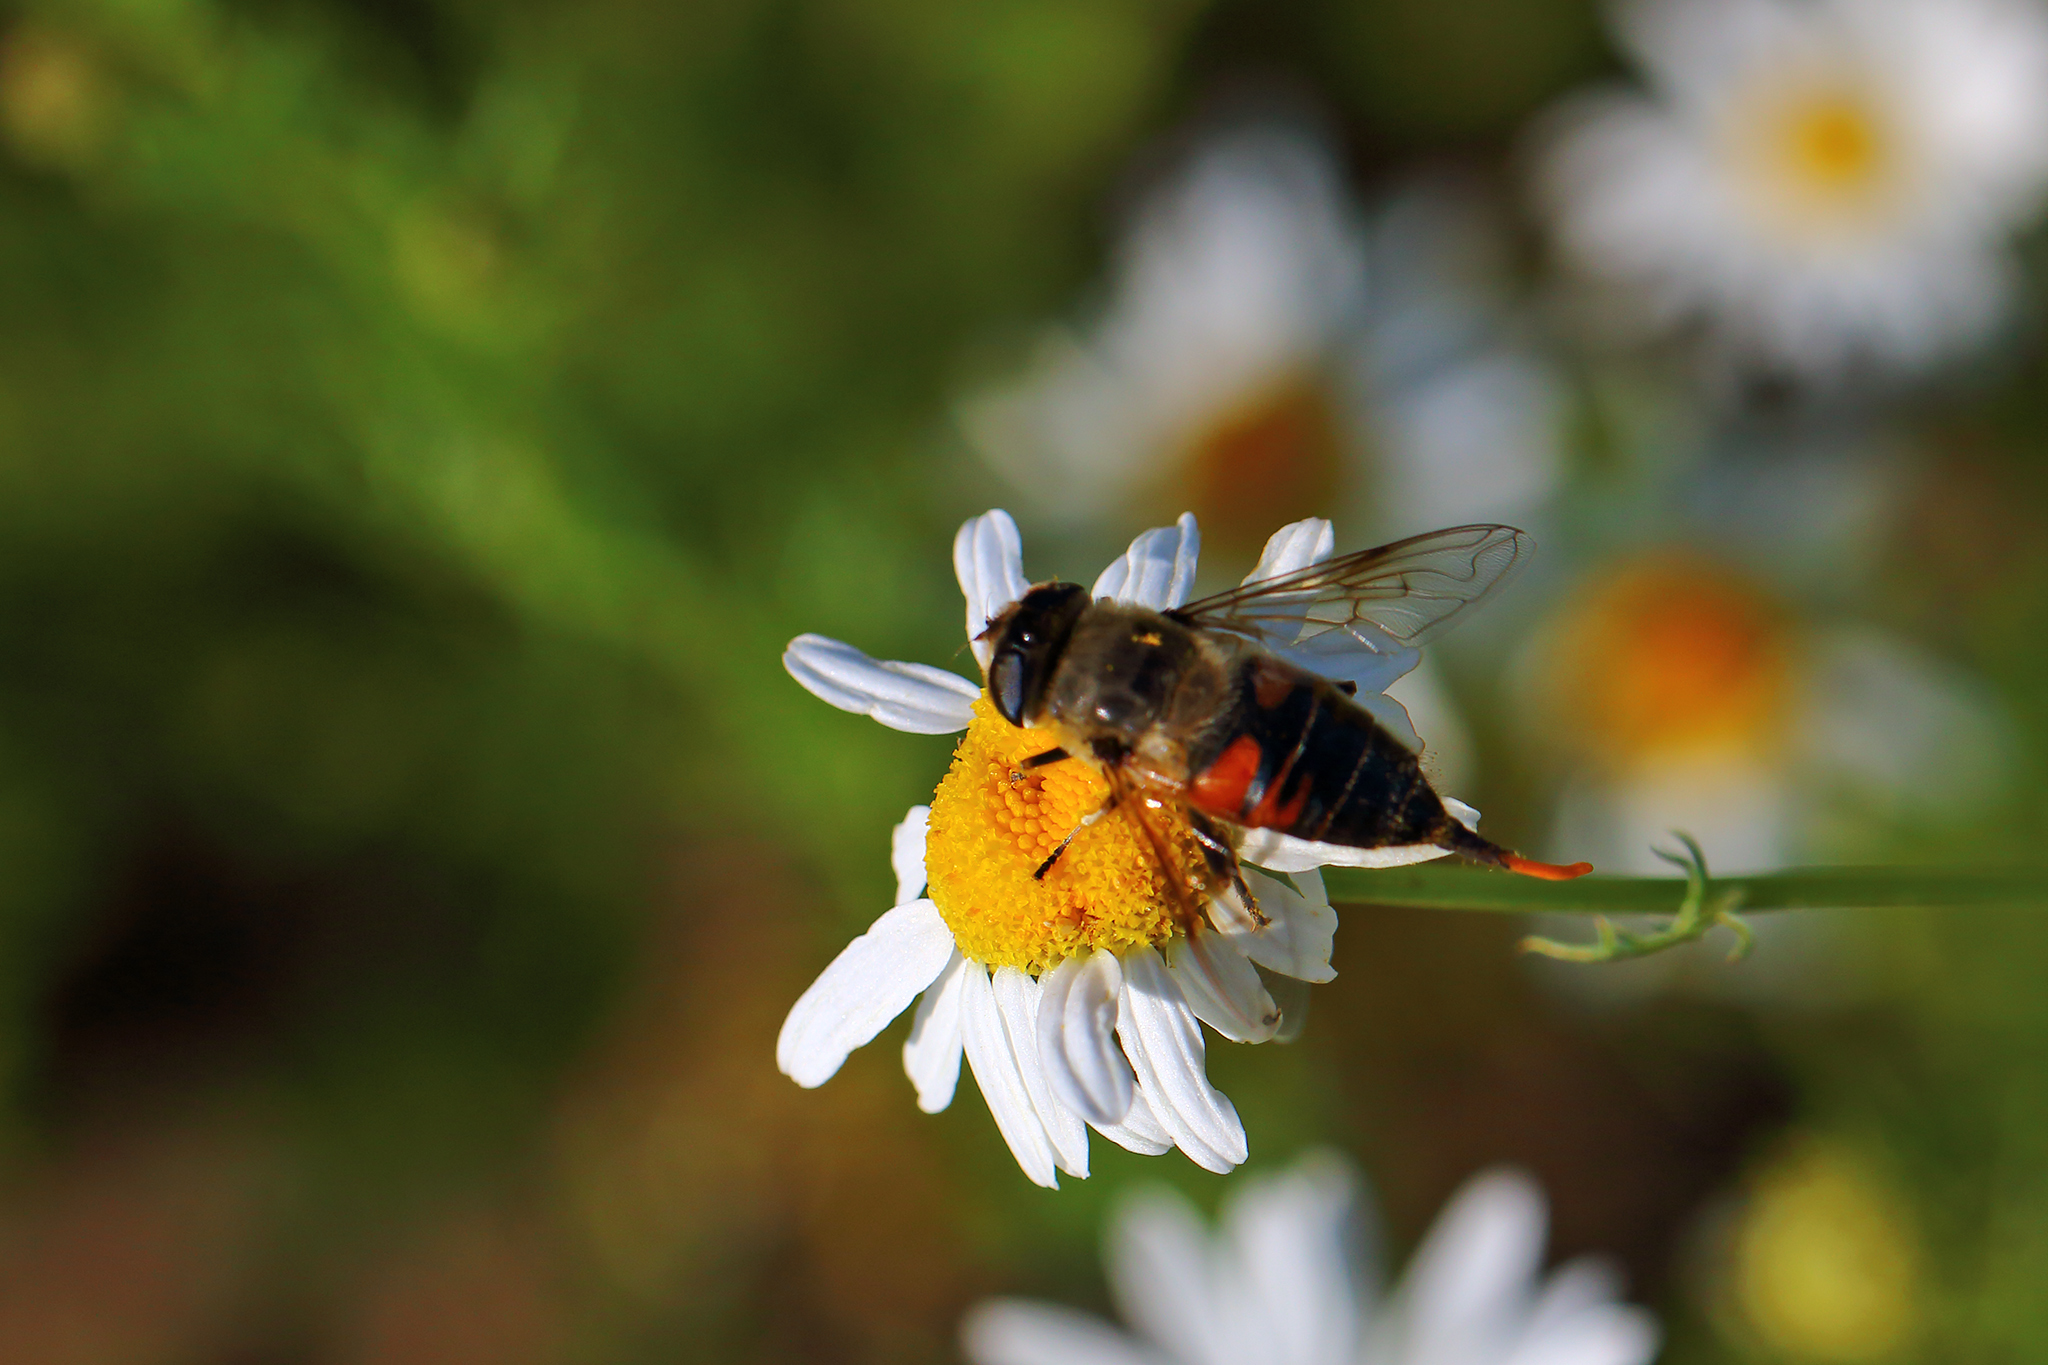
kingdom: Animalia
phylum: Arthropoda
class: Insecta
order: Diptera
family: Syrphidae
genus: Eristalis
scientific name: Eristalis tenax
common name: Drone fly
